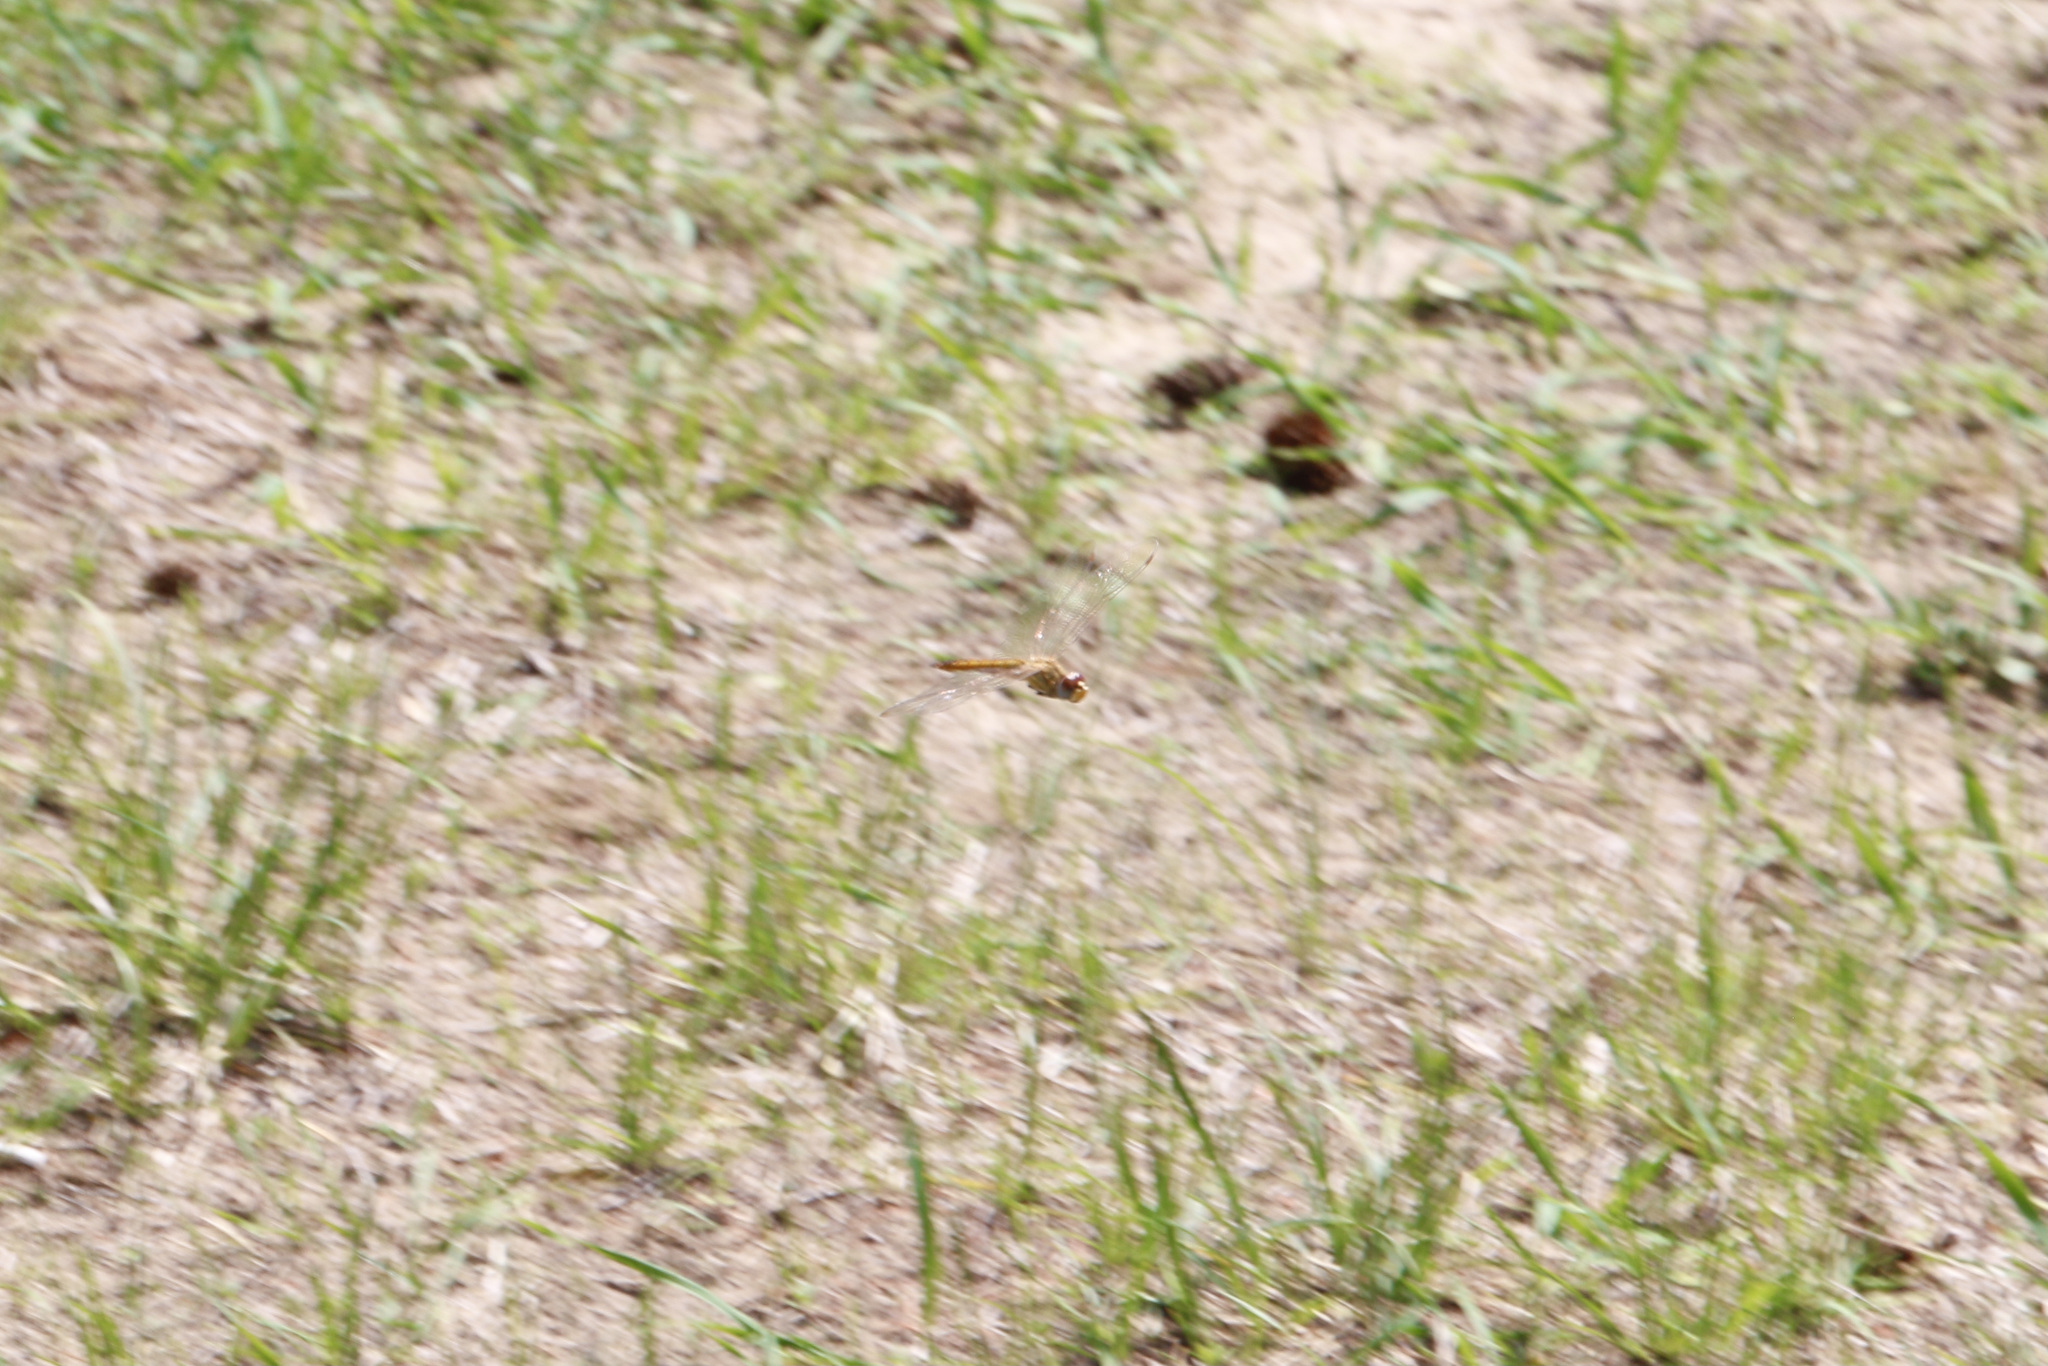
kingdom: Animalia
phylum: Arthropoda
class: Insecta
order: Odonata
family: Libellulidae
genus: Pantala
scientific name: Pantala flavescens
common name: Wandering glider
